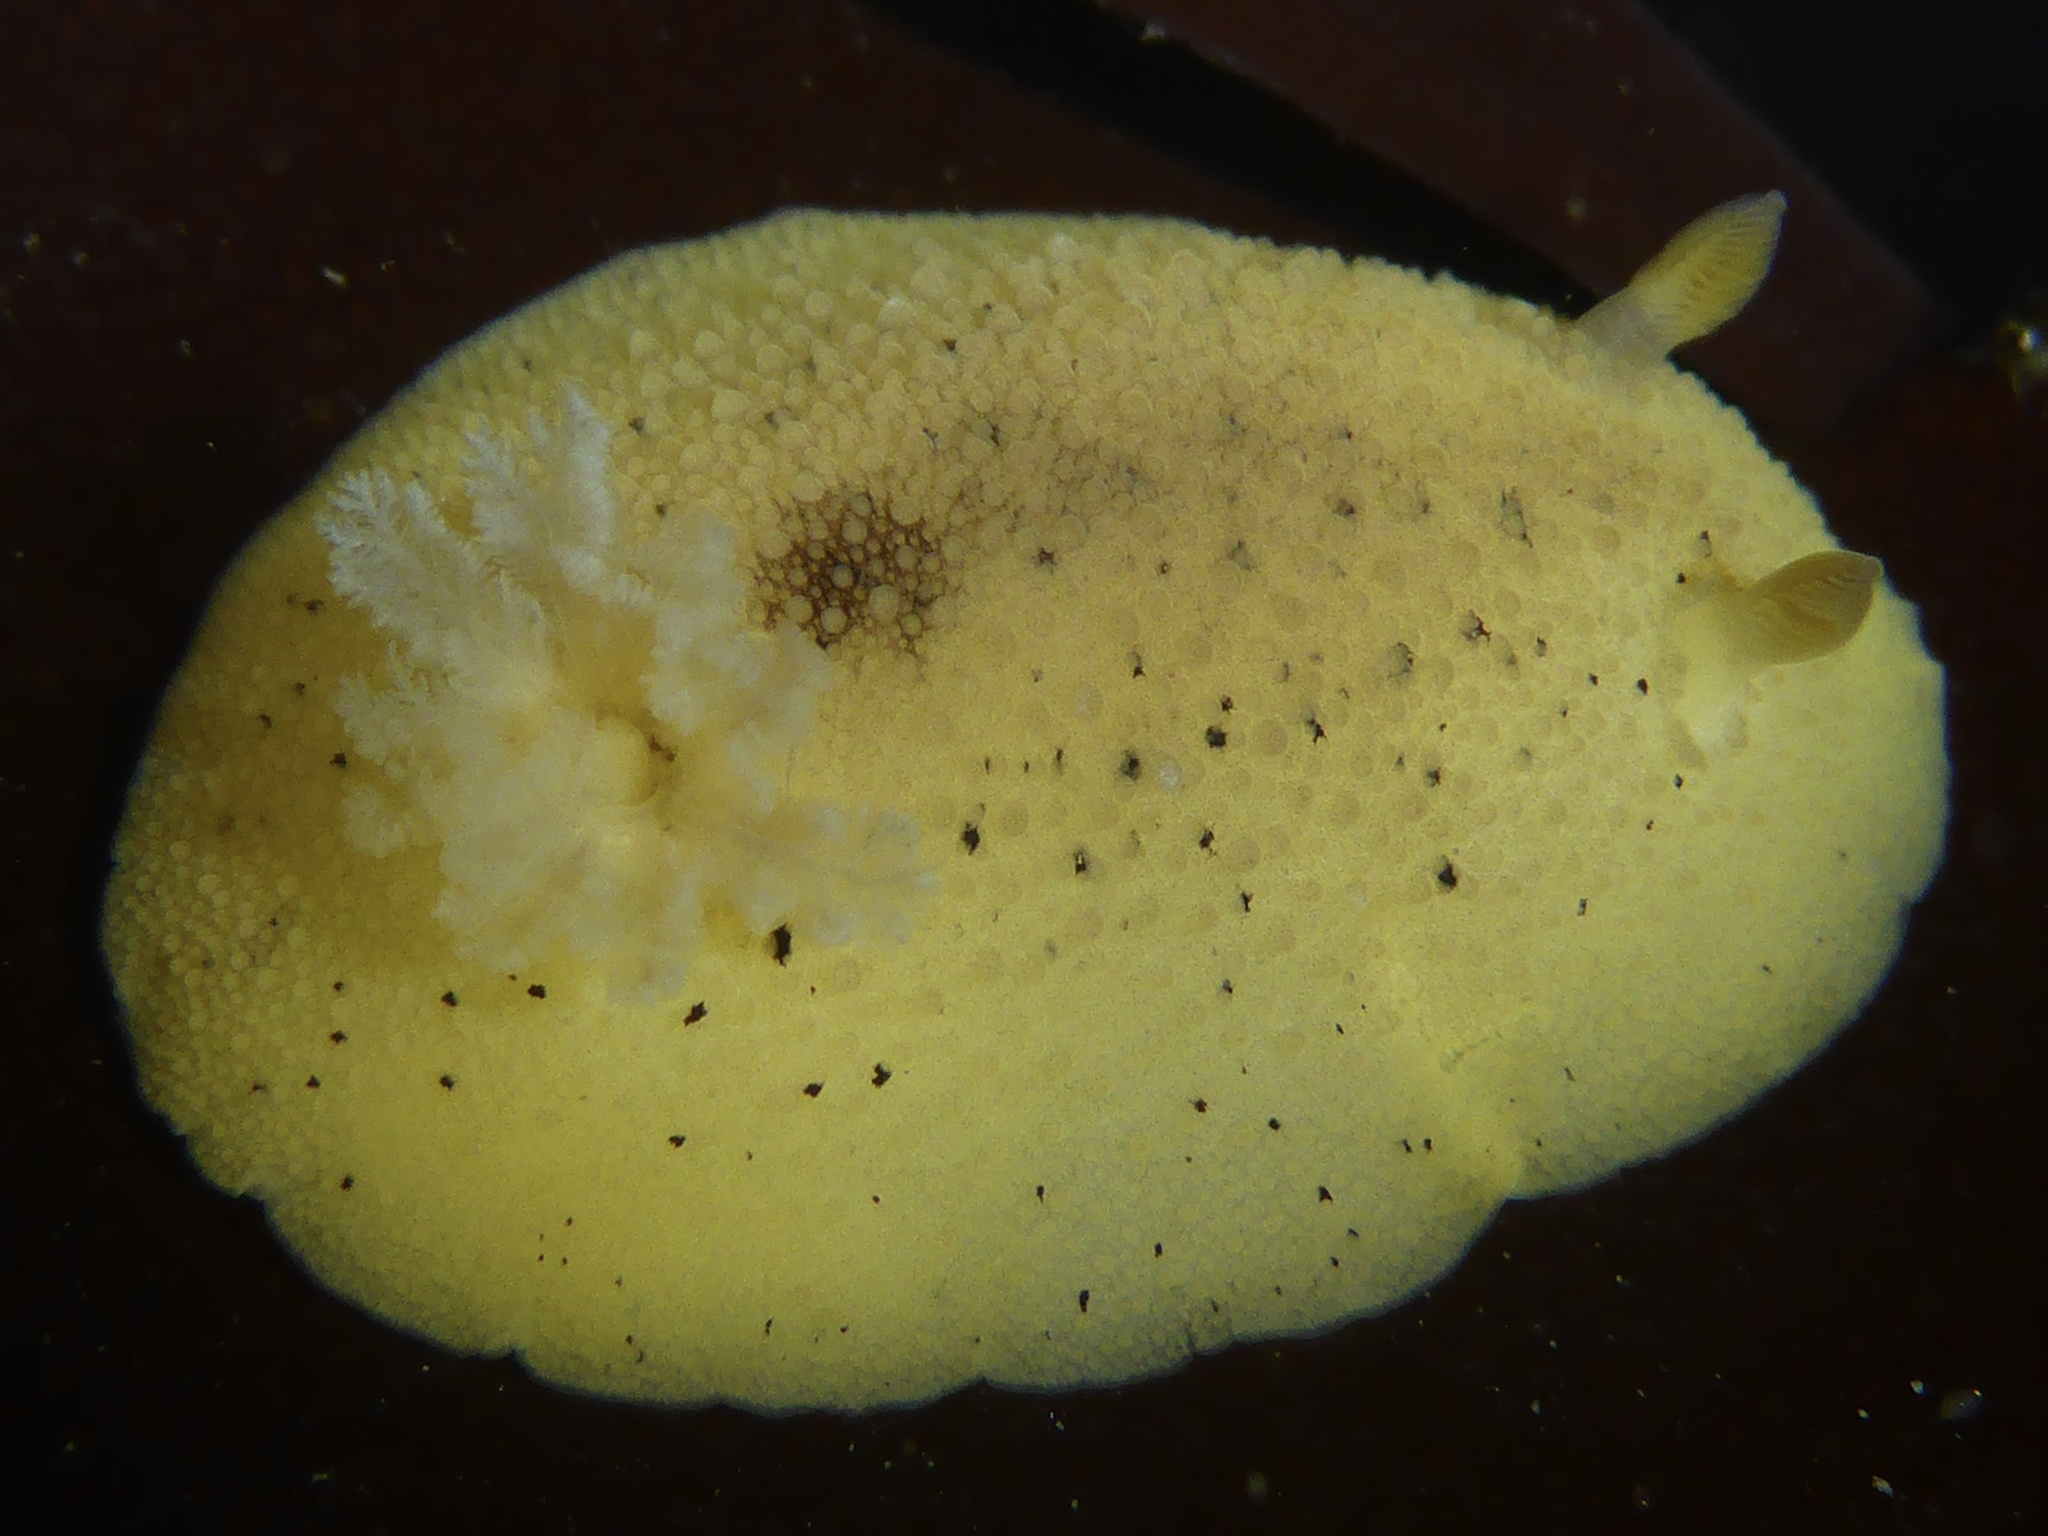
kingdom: Animalia
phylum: Mollusca
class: Gastropoda
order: Nudibranchia
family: Discodorididae
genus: Geitodoris
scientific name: Geitodoris heathi
